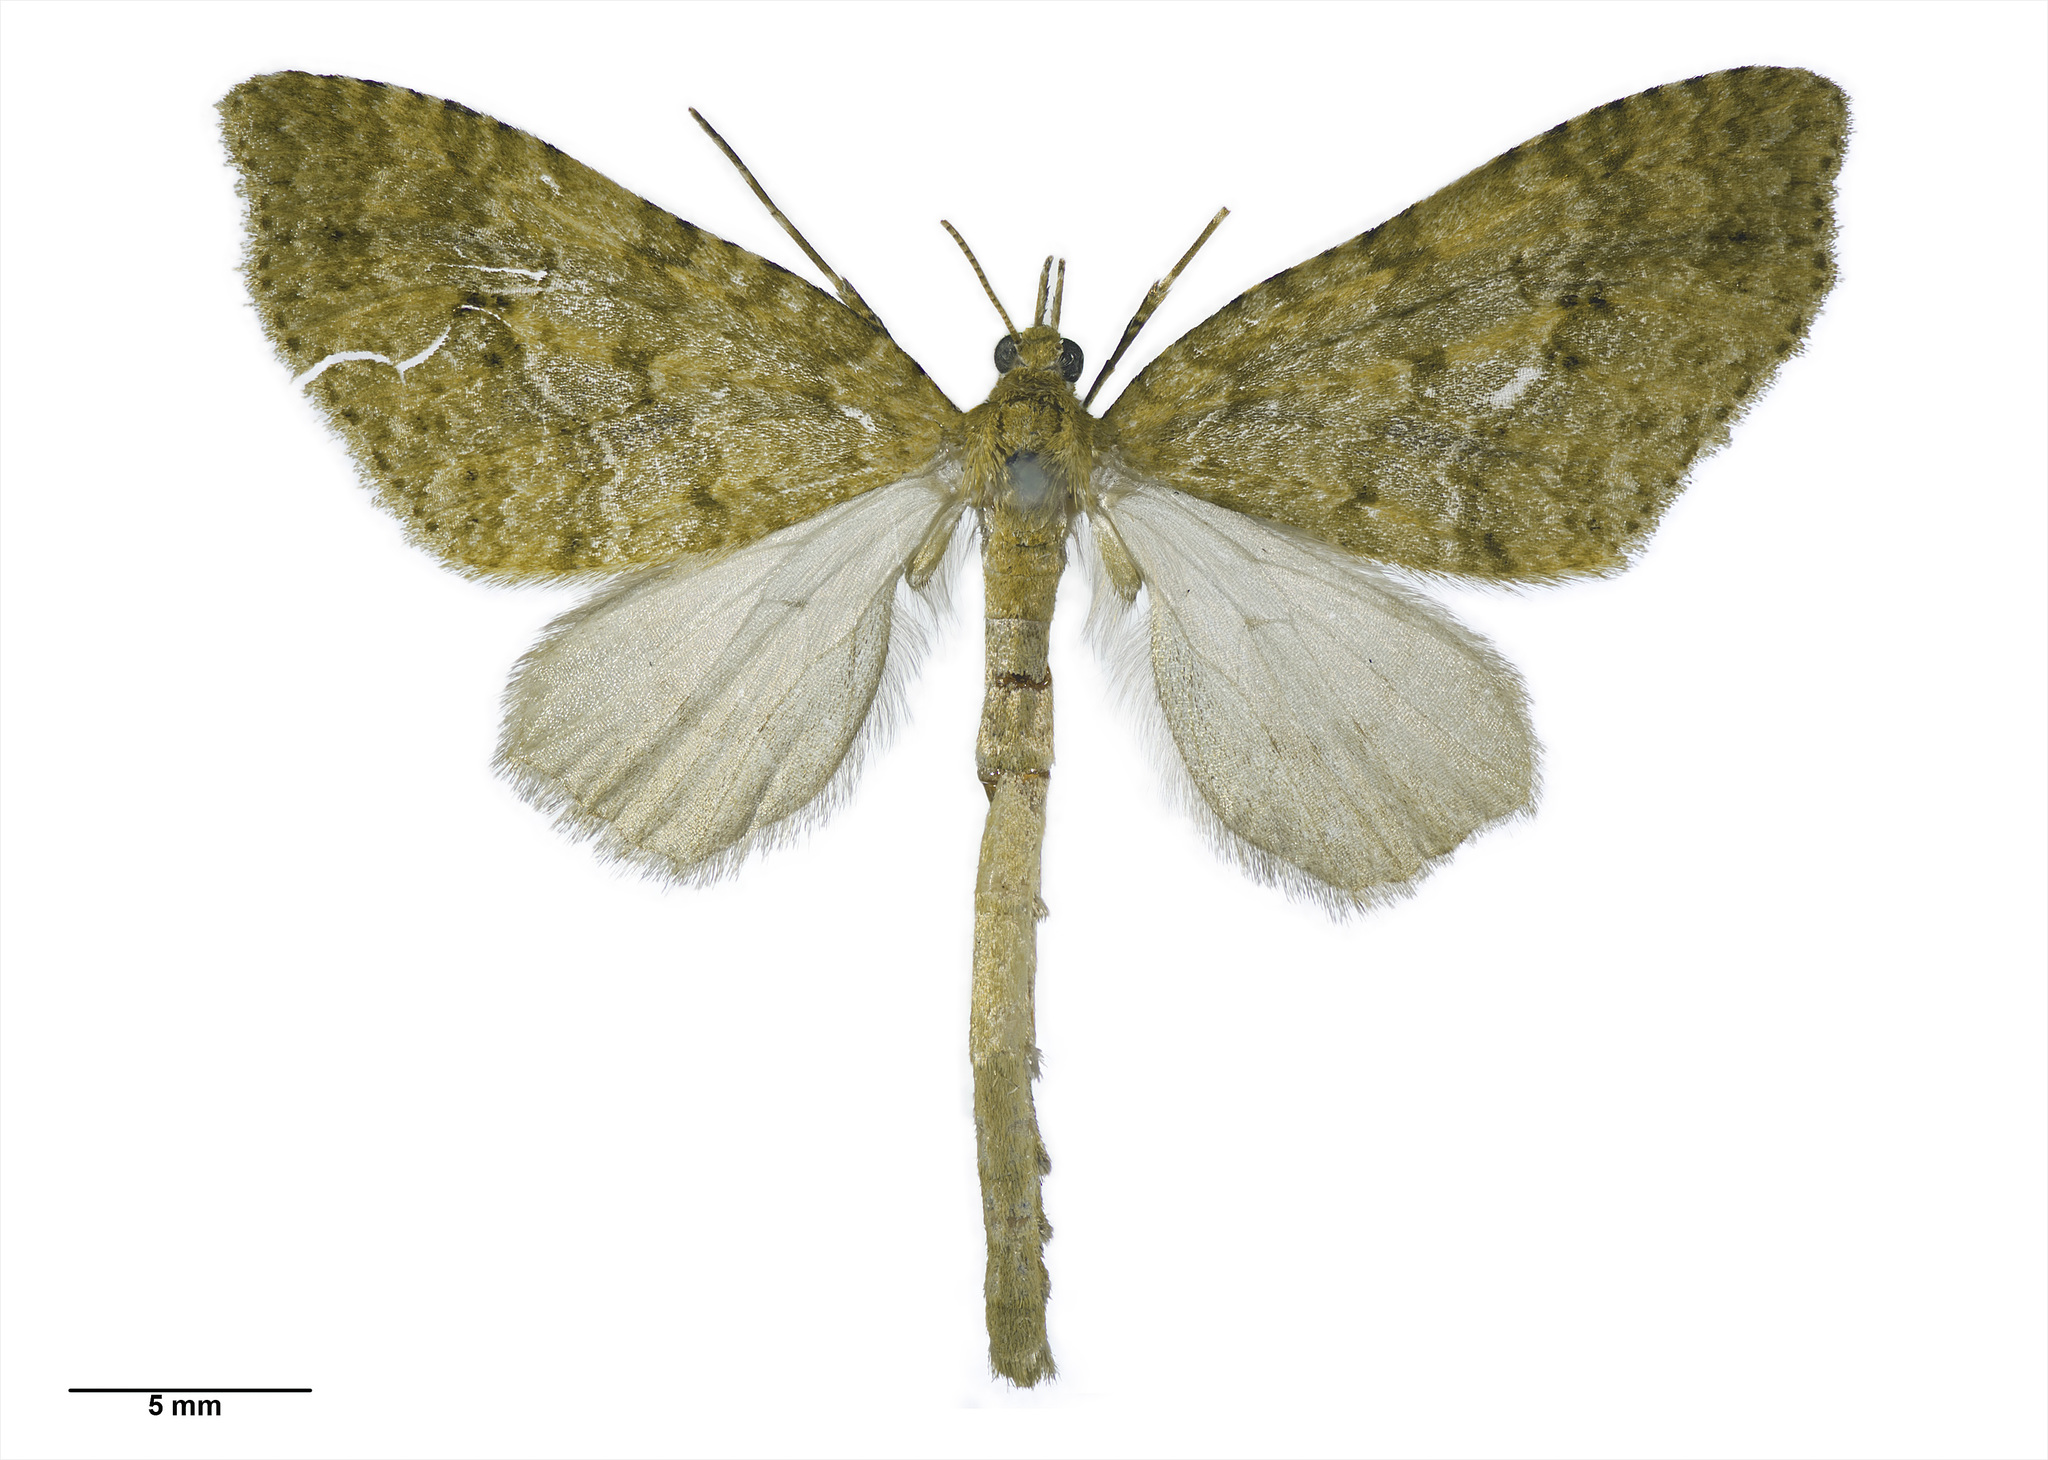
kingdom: Animalia
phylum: Arthropoda
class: Insecta
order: Lepidoptera
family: Geometridae
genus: Tatosoma
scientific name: Tatosoma monoviridisata
